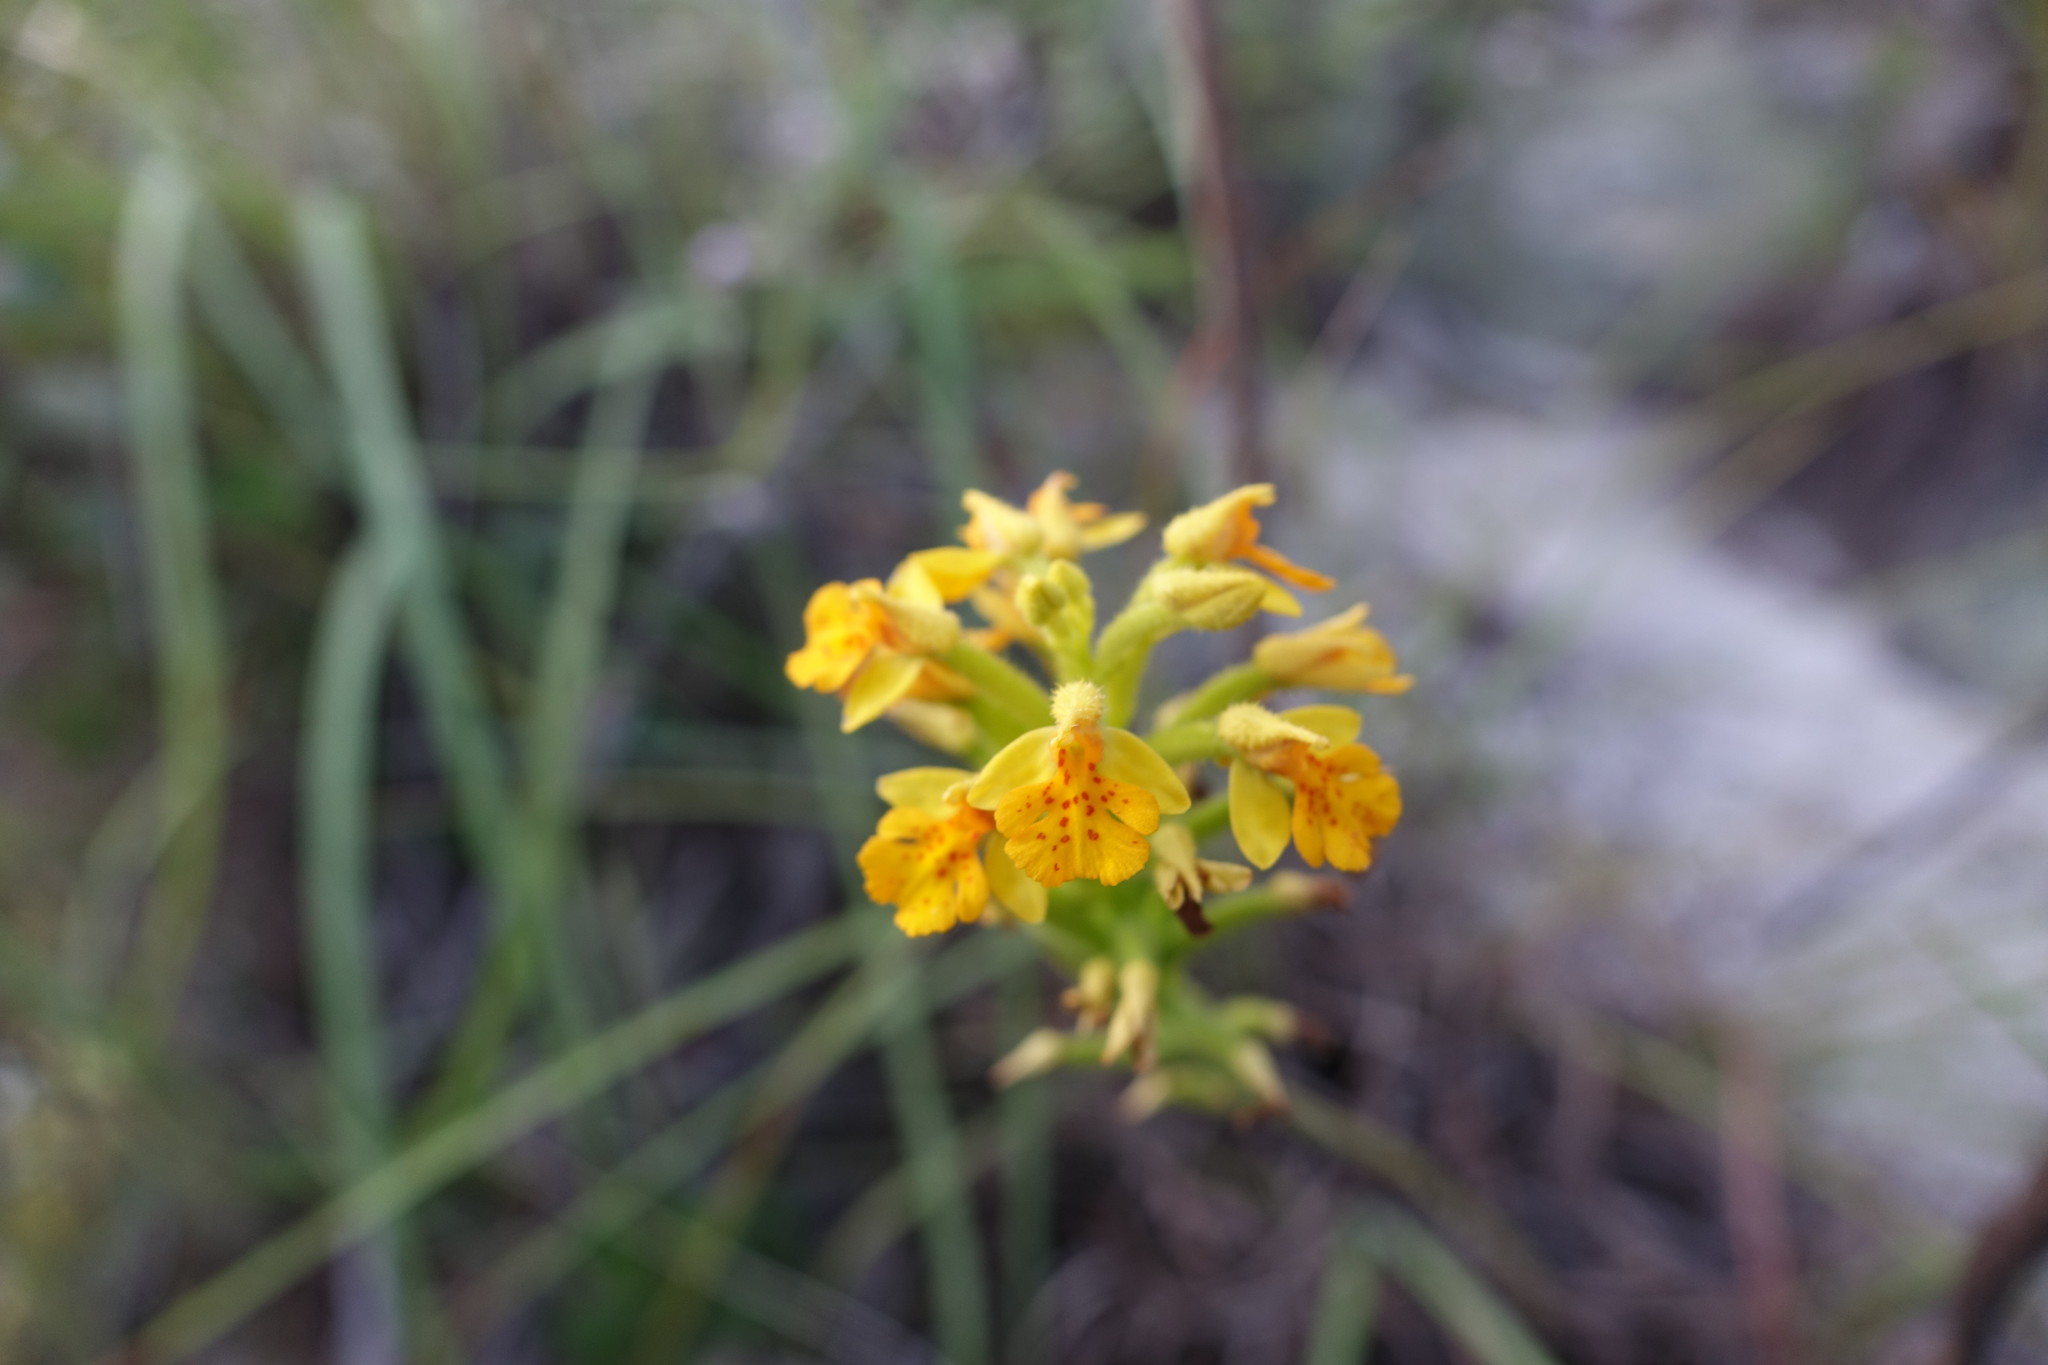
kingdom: Plantae
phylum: Tracheophyta
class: Liliopsida
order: Asparagales
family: Orchidaceae
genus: Cynorkis
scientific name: Cynorkis melinantha
